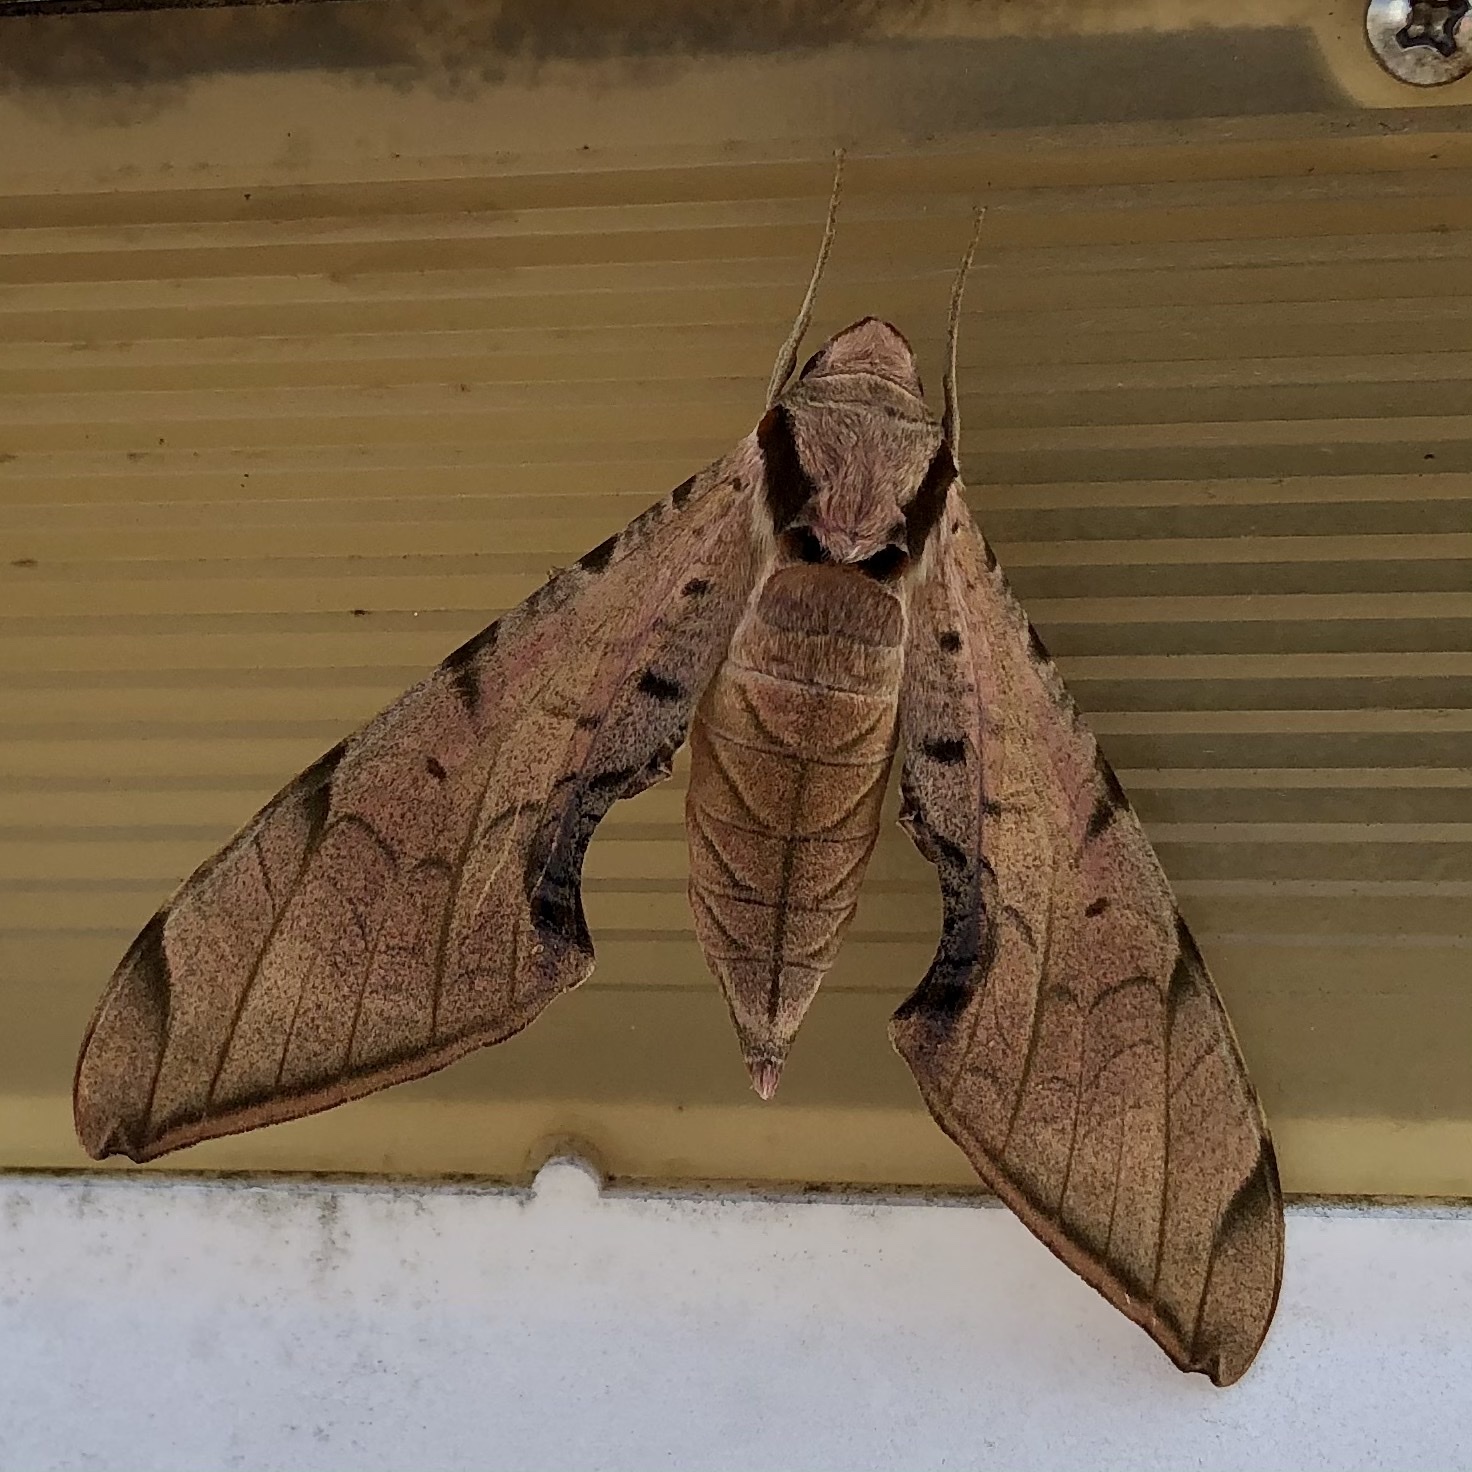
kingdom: Animalia
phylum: Arthropoda
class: Insecta
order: Lepidoptera
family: Sphingidae
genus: Protambulyx
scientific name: Protambulyx strigilis
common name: Streaked sphinx
